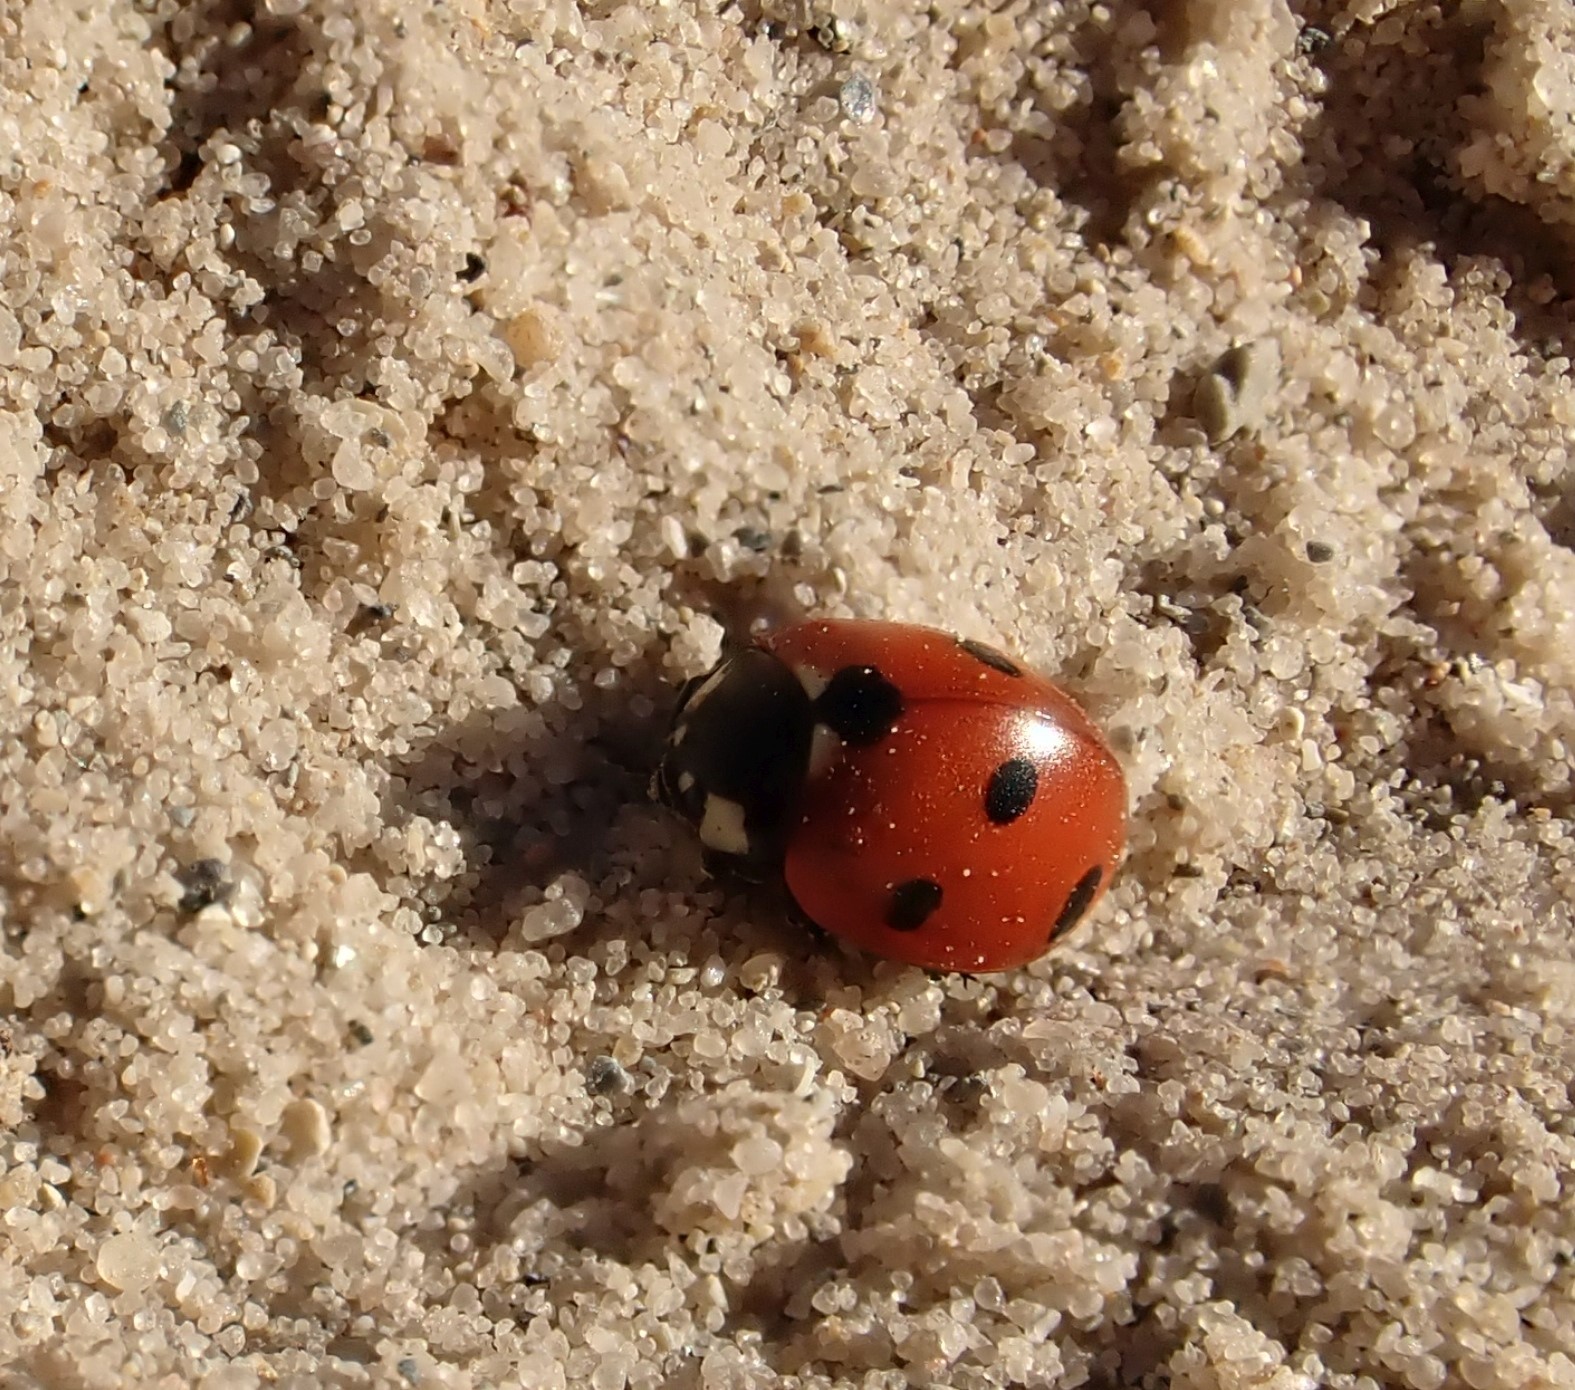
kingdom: Animalia
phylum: Arthropoda
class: Insecta
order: Coleoptera
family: Coccinellidae
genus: Coccinella
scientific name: Coccinella septempunctata
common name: Sevenspotted lady beetle
